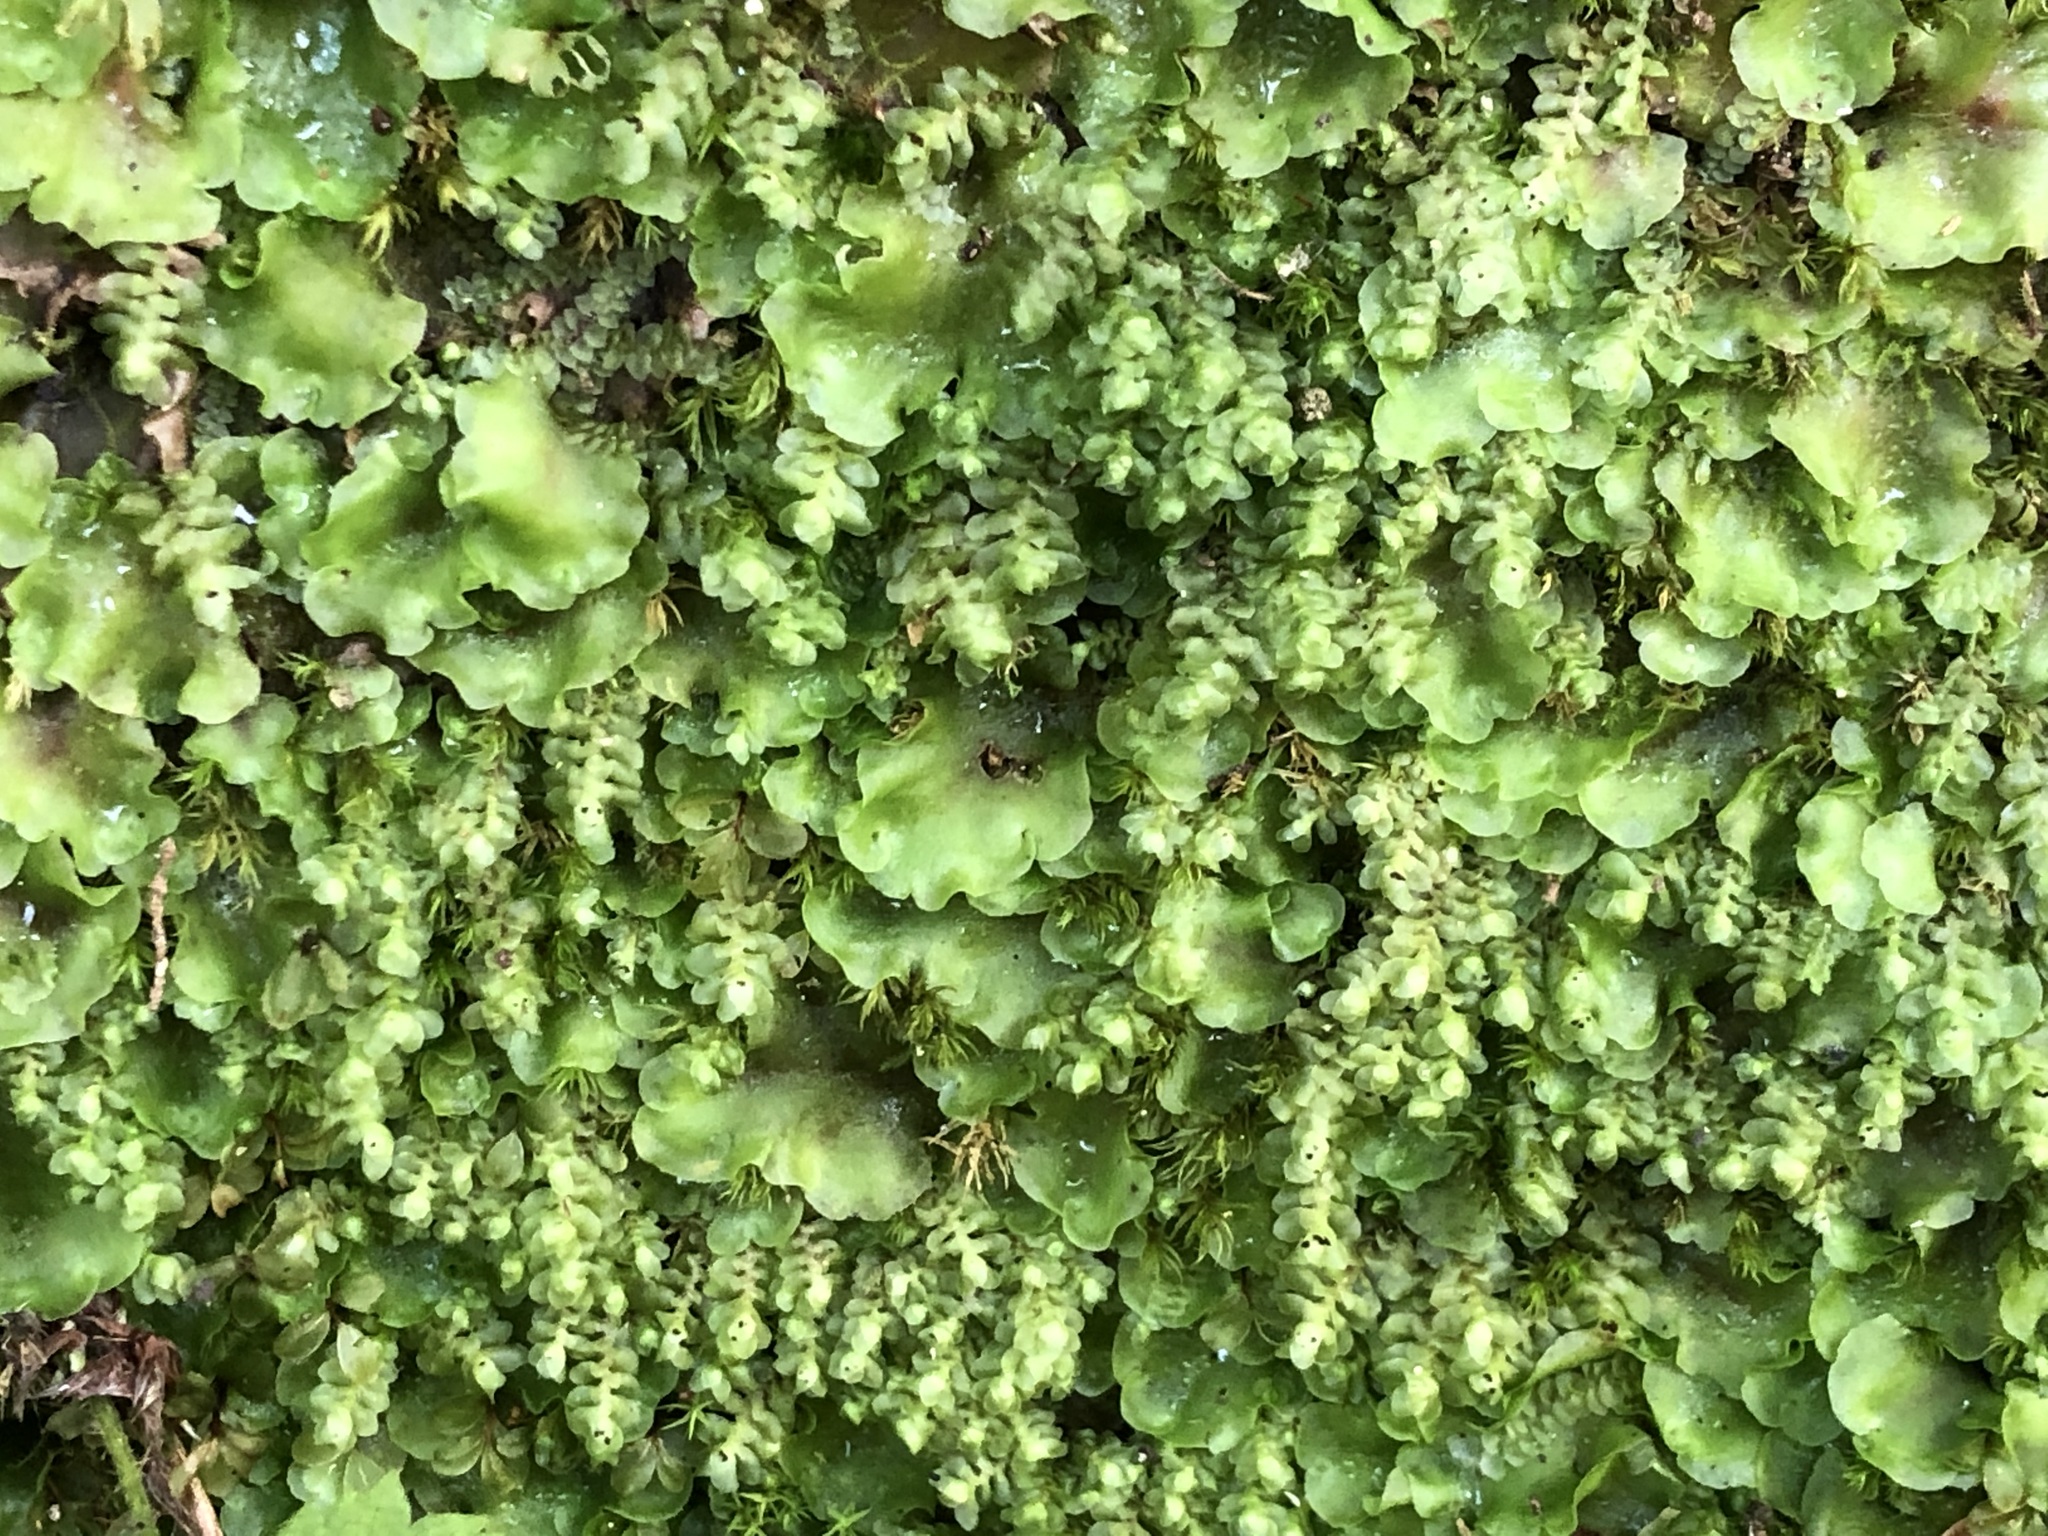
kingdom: Plantae
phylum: Marchantiophyta
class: Jungermanniopsida
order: Jungermanniales
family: Scapaniaceae
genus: Scapania
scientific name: Scapania nemorea
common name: Grove earwort
